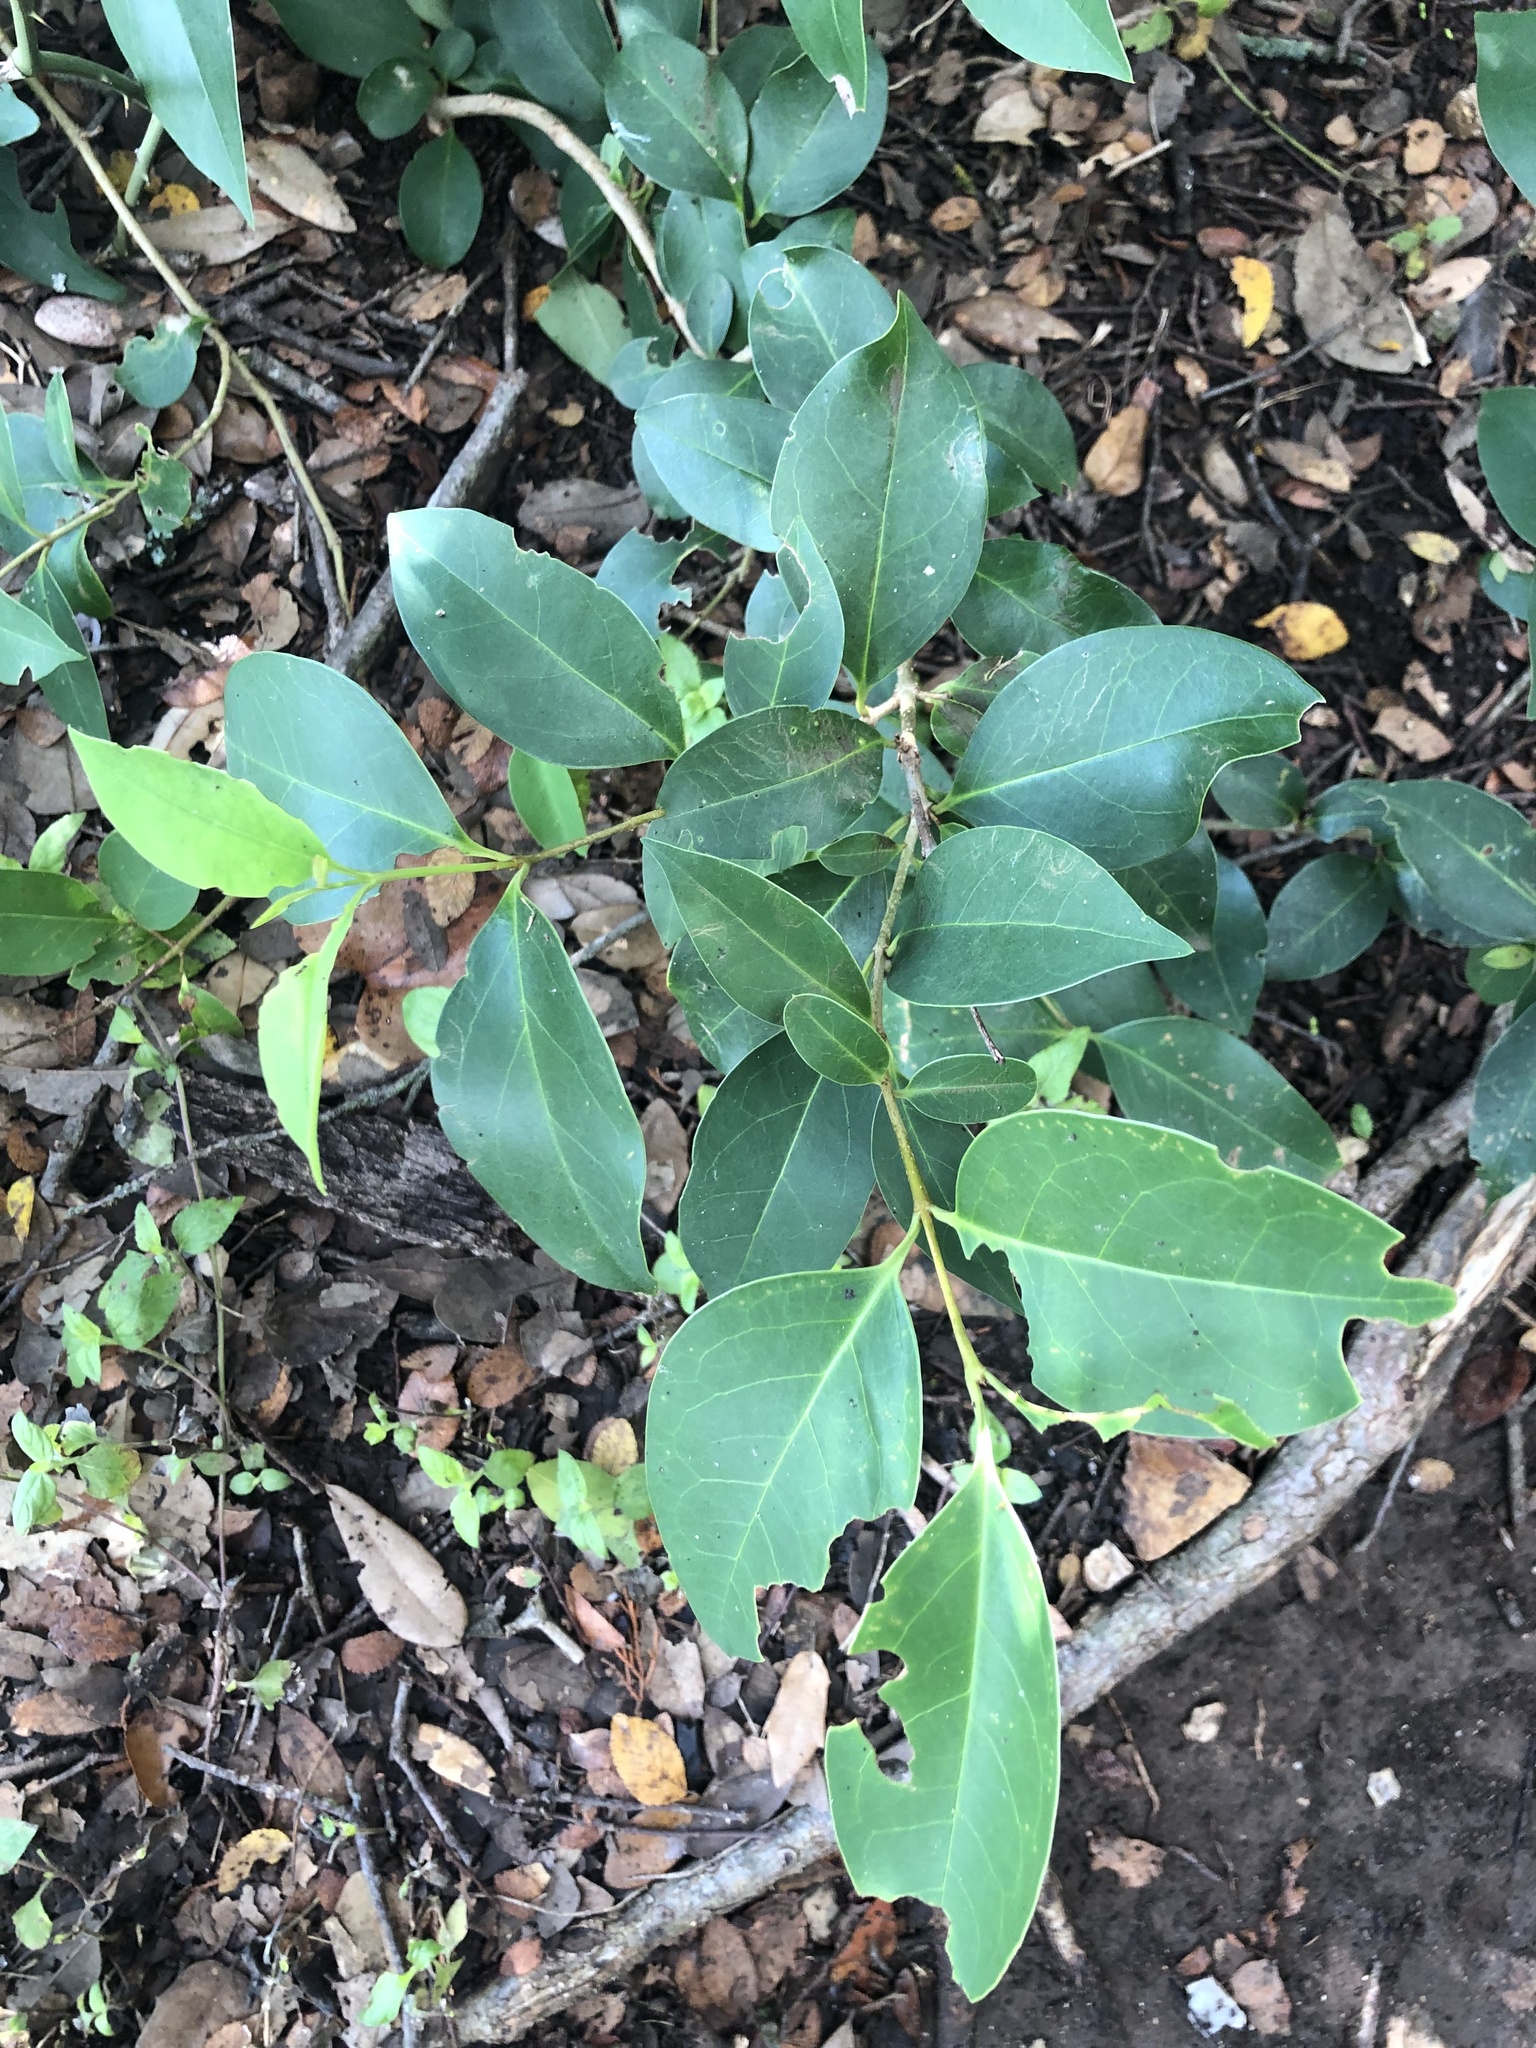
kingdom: Plantae
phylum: Tracheophyta
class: Magnoliopsida
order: Lamiales
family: Oleaceae
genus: Ligustrum
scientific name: Ligustrum lucidum
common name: Glossy privet
